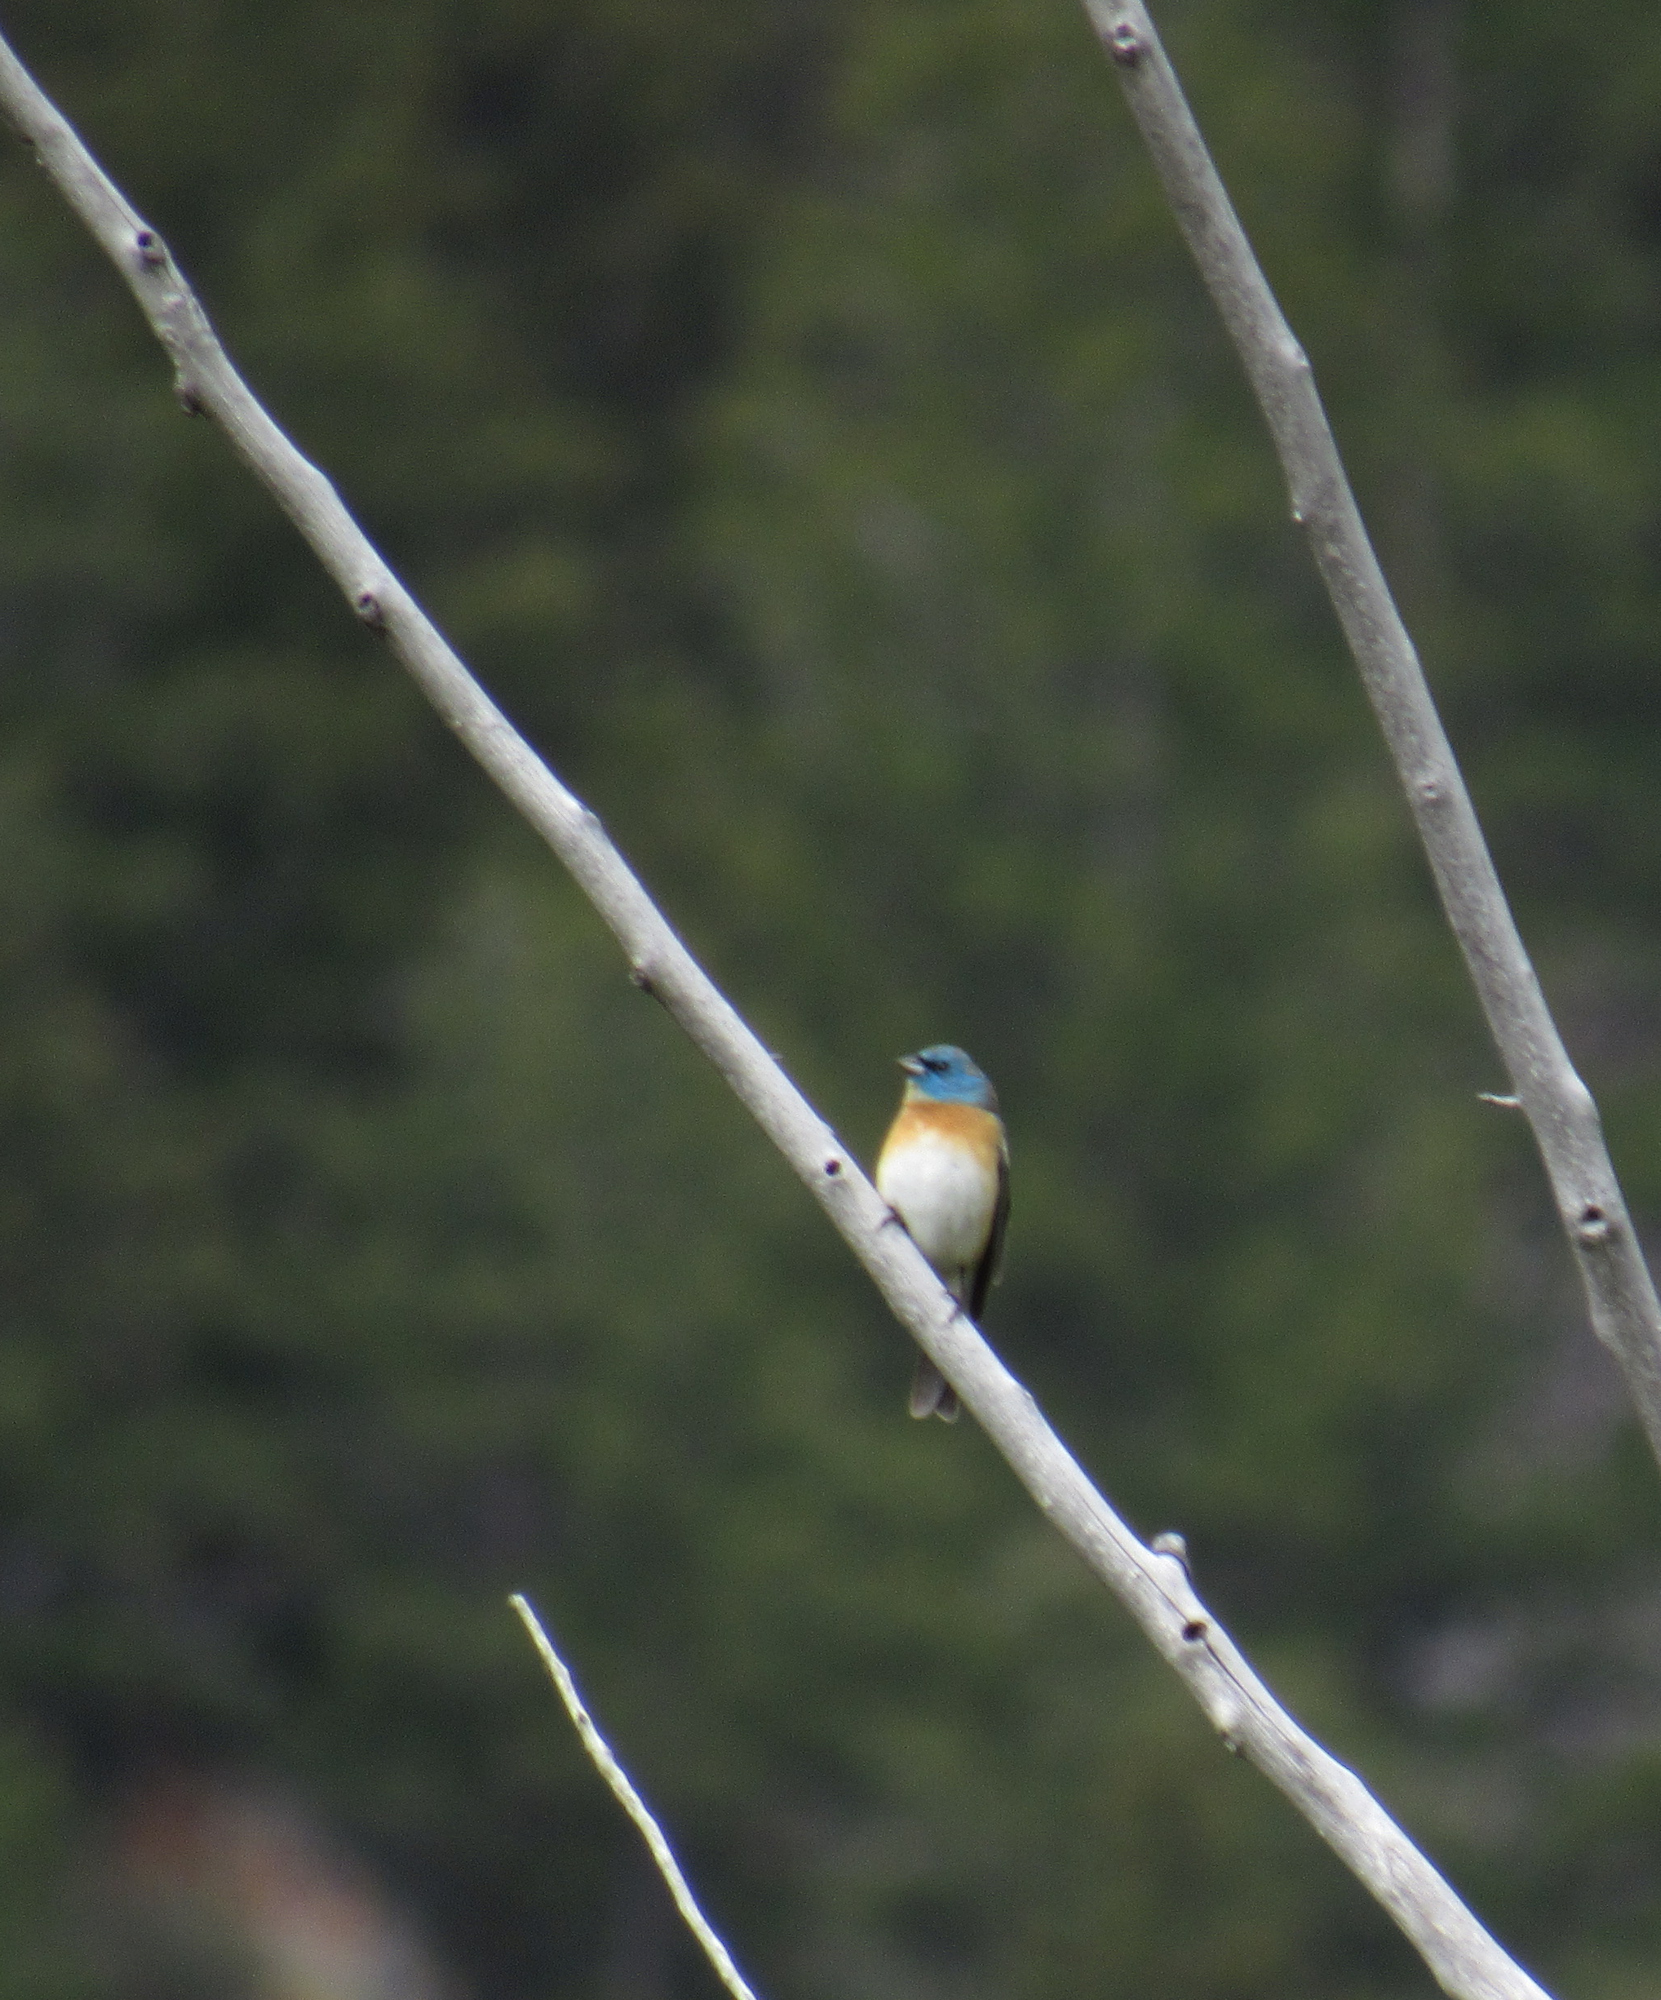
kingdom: Animalia
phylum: Chordata
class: Aves
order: Passeriformes
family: Cardinalidae
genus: Passerina
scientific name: Passerina amoena
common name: Lazuli bunting
